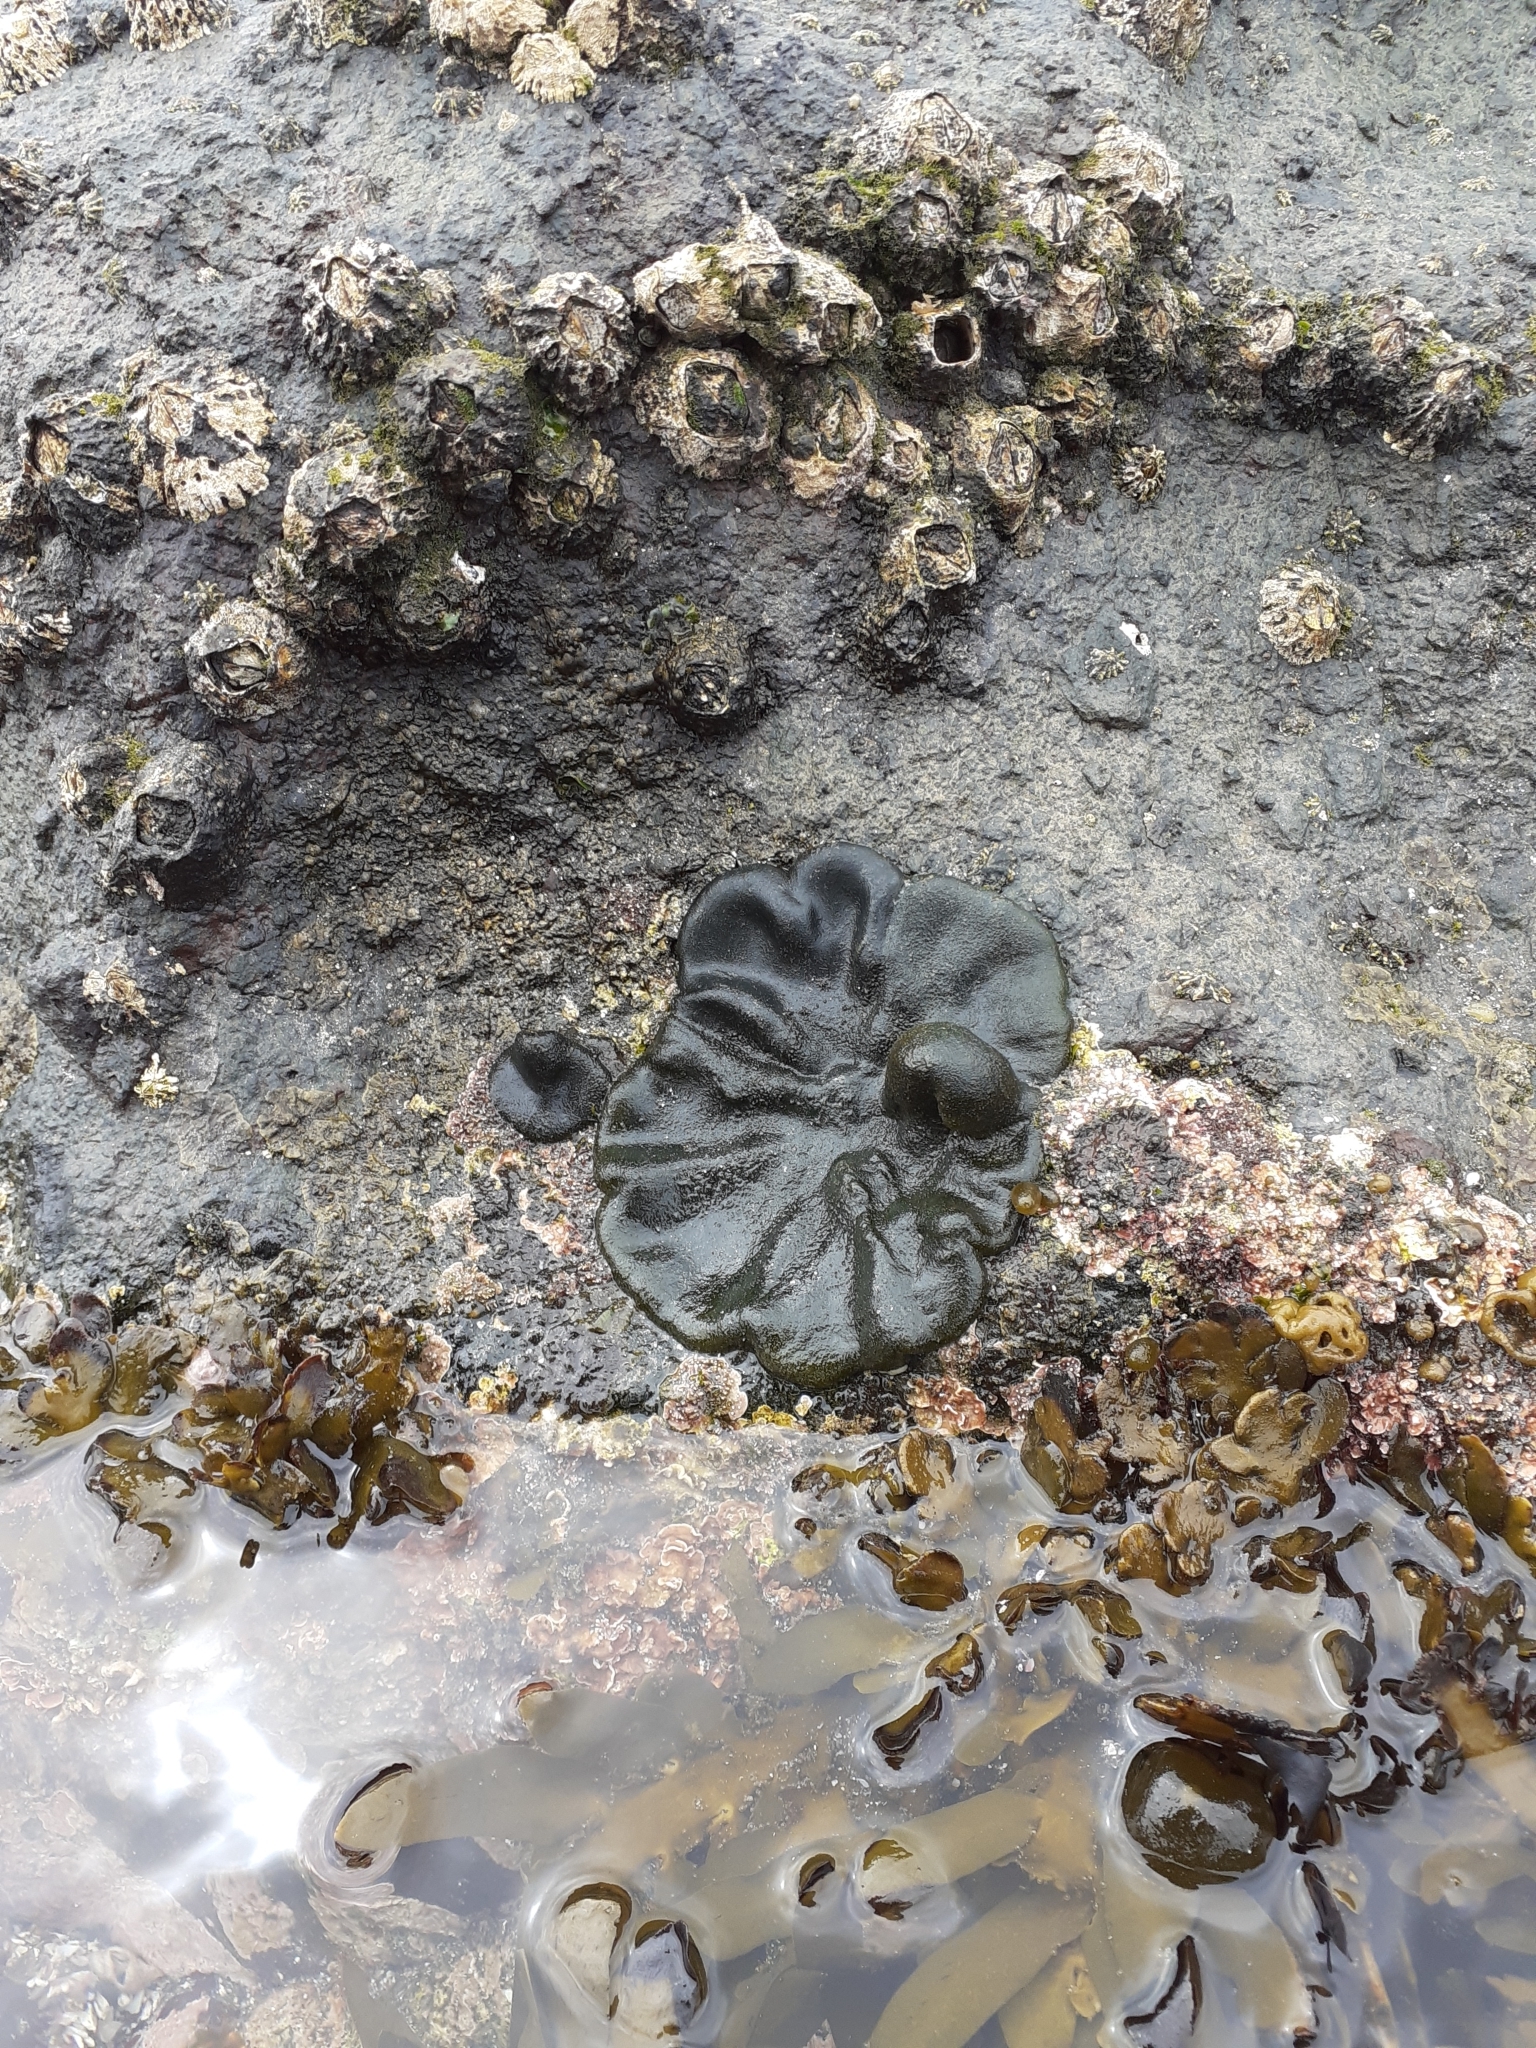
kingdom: Plantae
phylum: Chlorophyta
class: Ulvophyceae
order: Bryopsidales
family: Codiaceae
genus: Codium
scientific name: Codium convolutum
